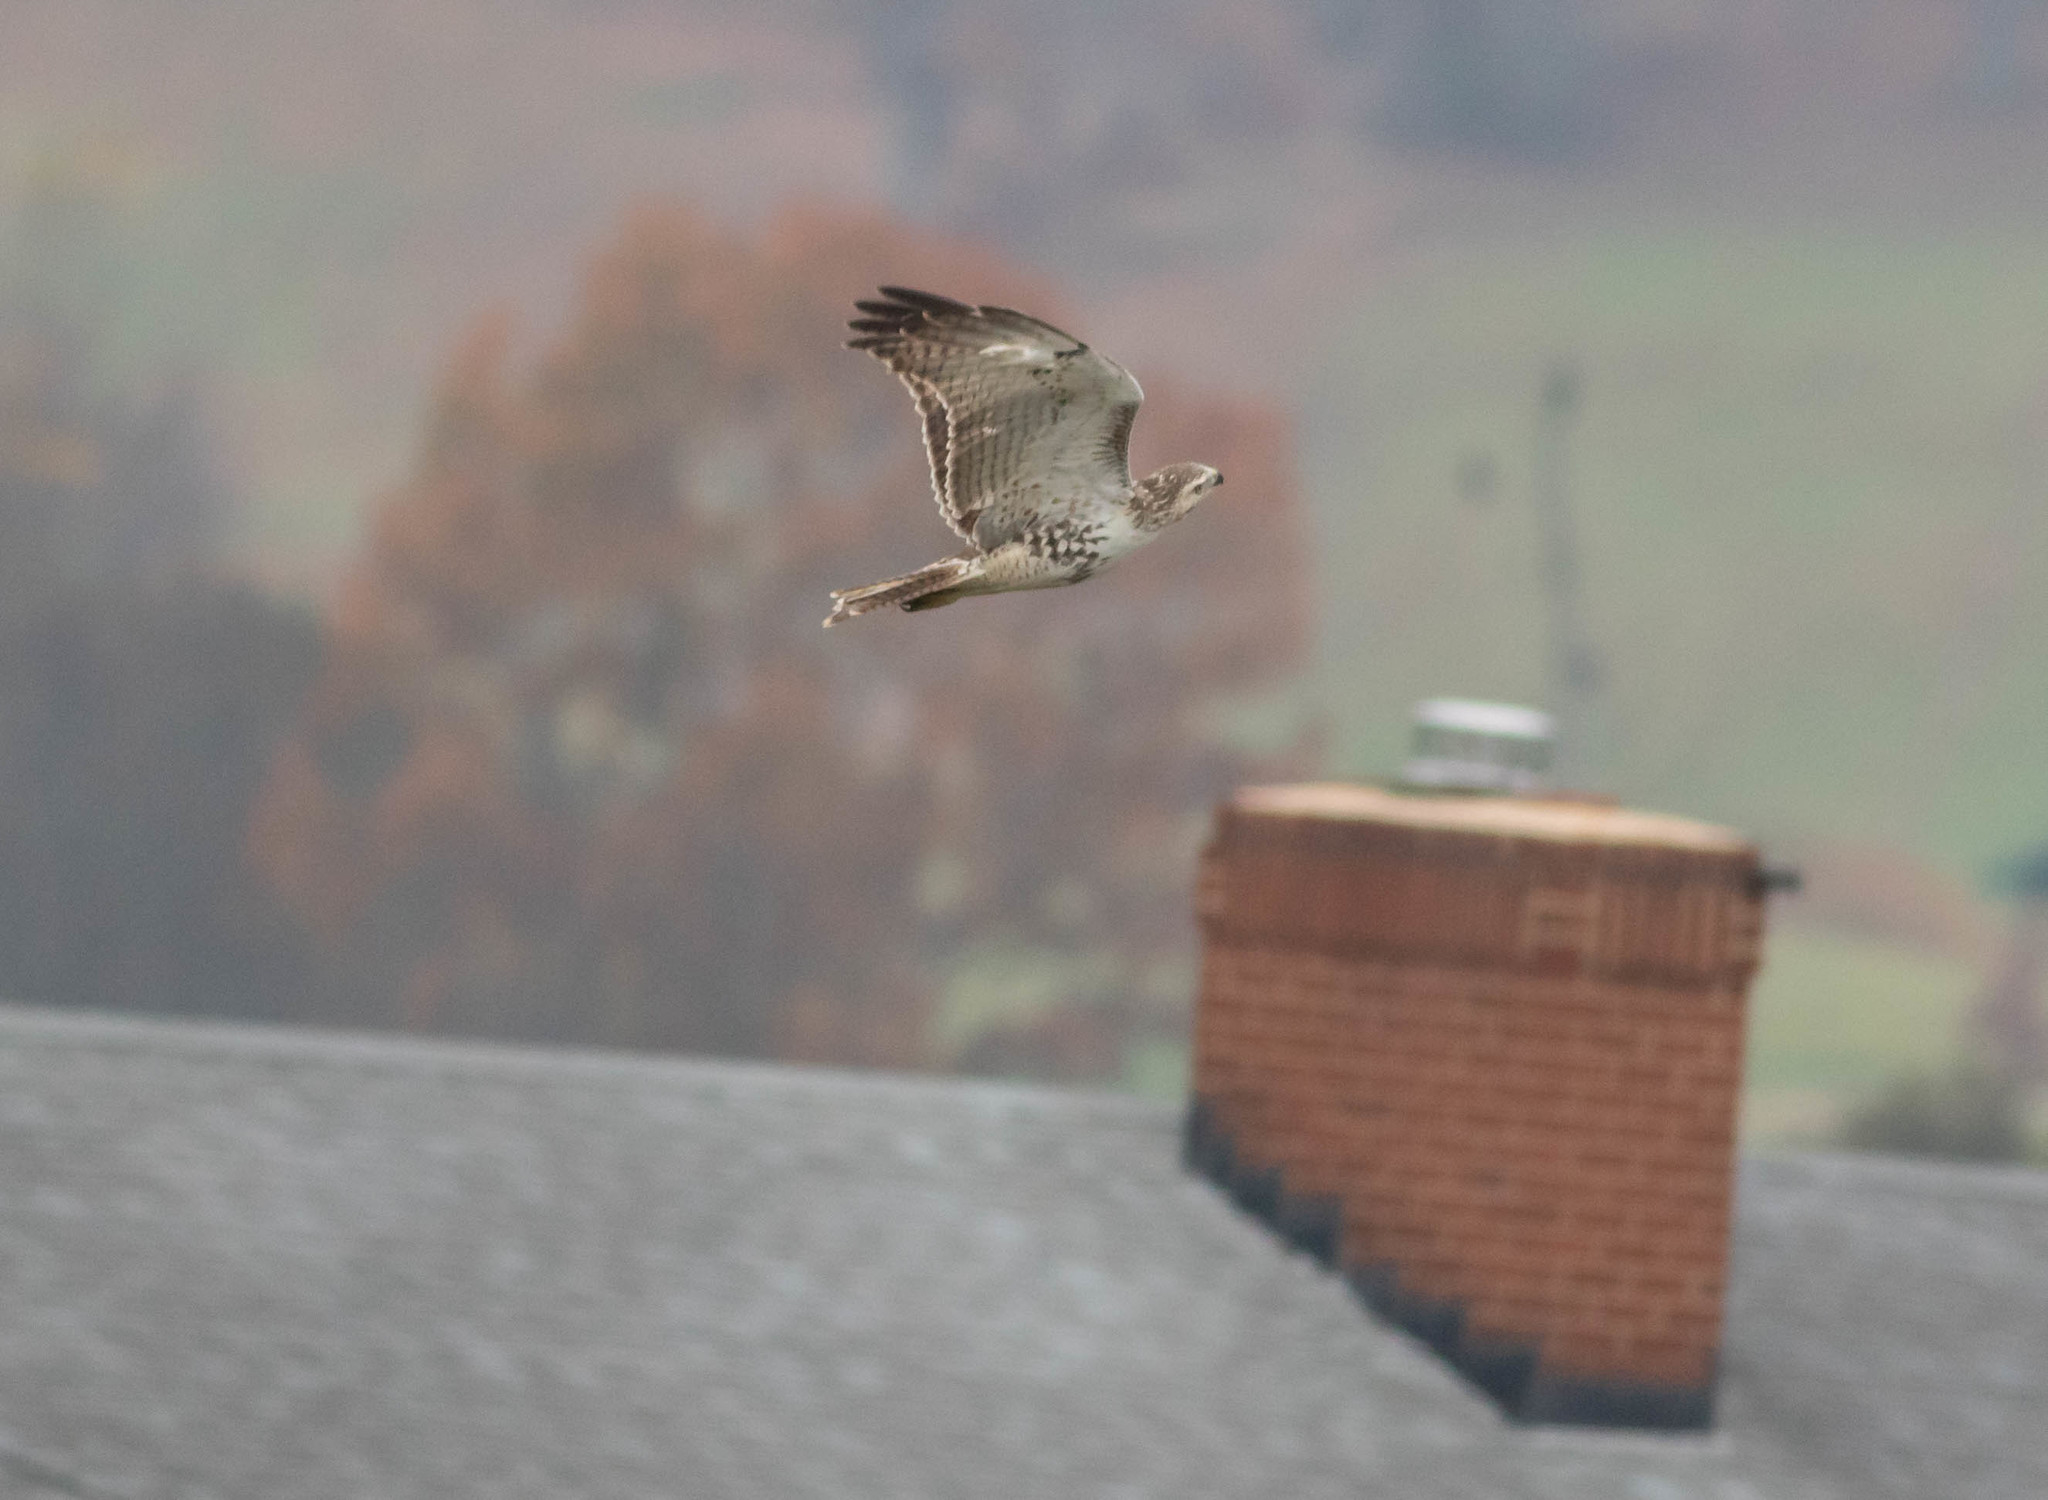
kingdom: Animalia
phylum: Chordata
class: Aves
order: Accipitriformes
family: Accipitridae
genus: Buteo
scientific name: Buteo jamaicensis
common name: Red-tailed hawk
